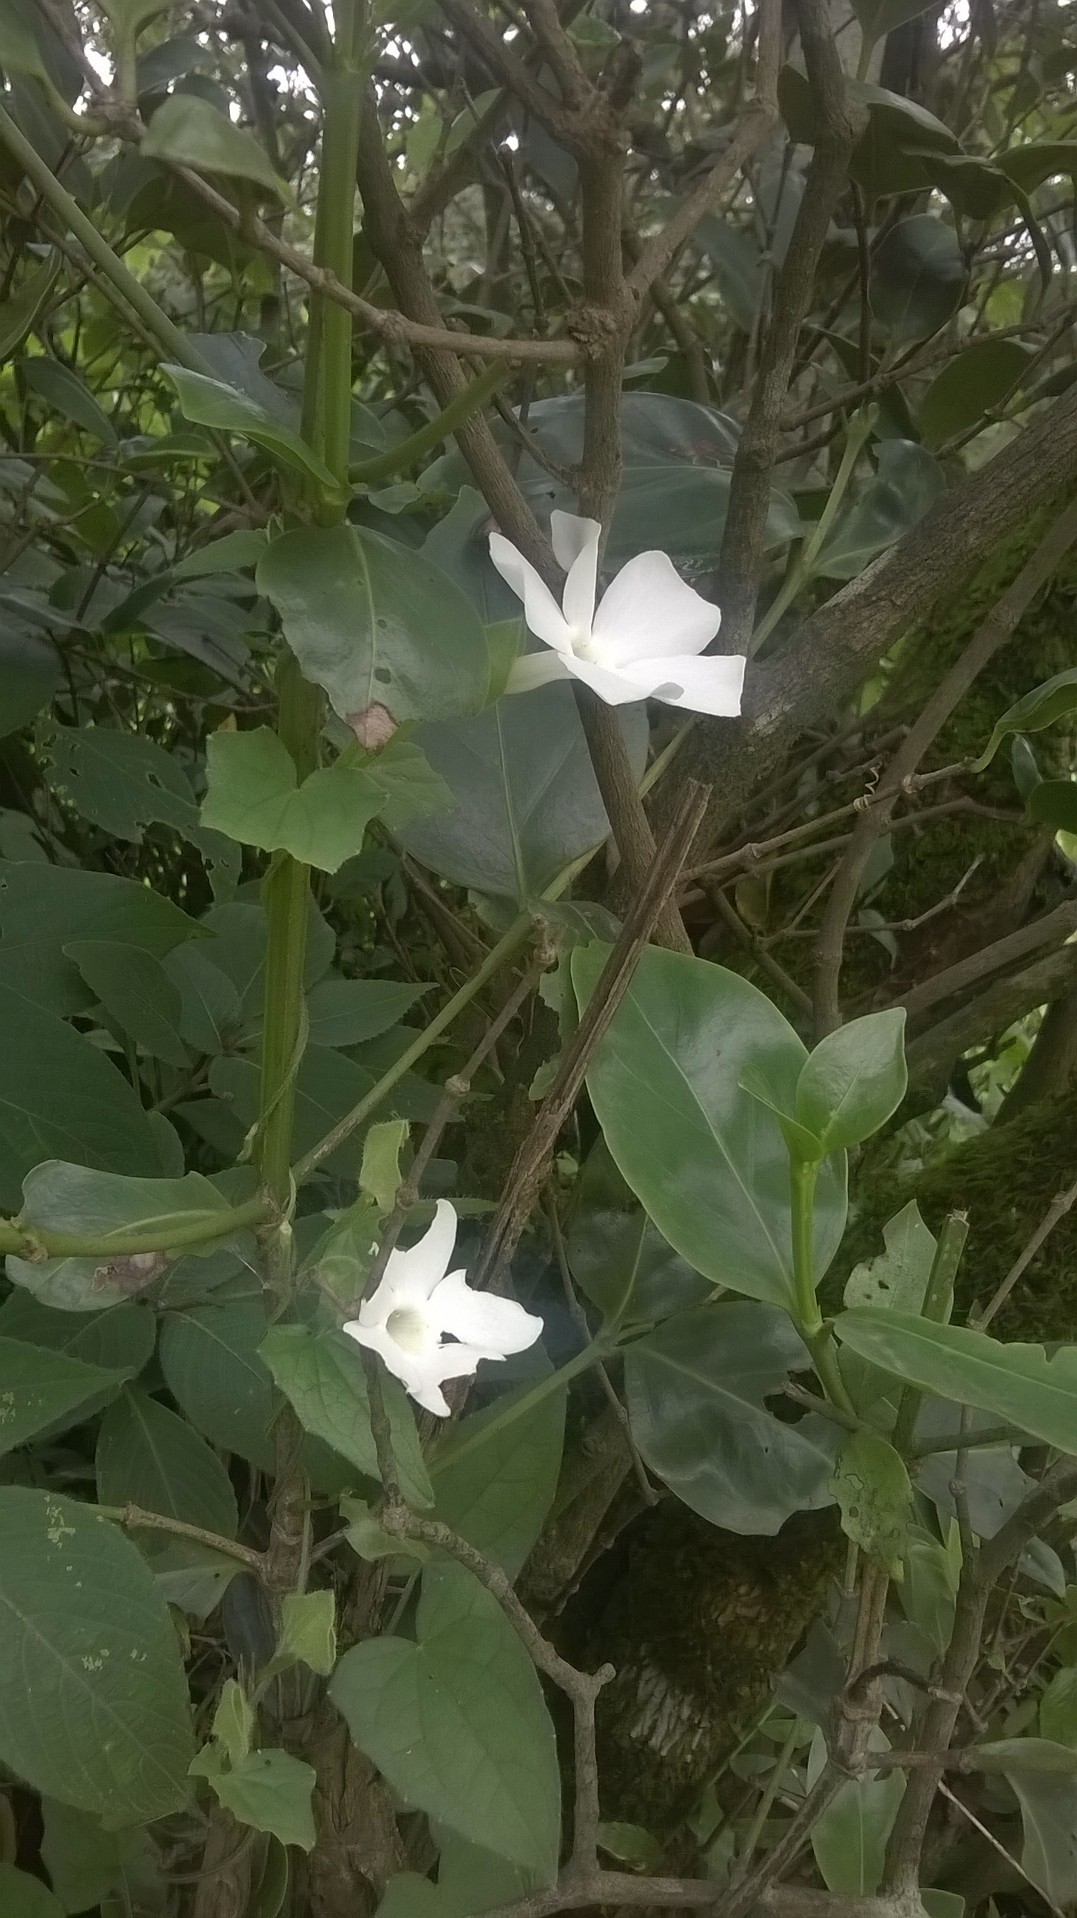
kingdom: Plantae
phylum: Tracheophyta
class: Magnoliopsida
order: Lamiales
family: Acanthaceae
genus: Thunbergia
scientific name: Thunbergia fragrans
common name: Whitelady
